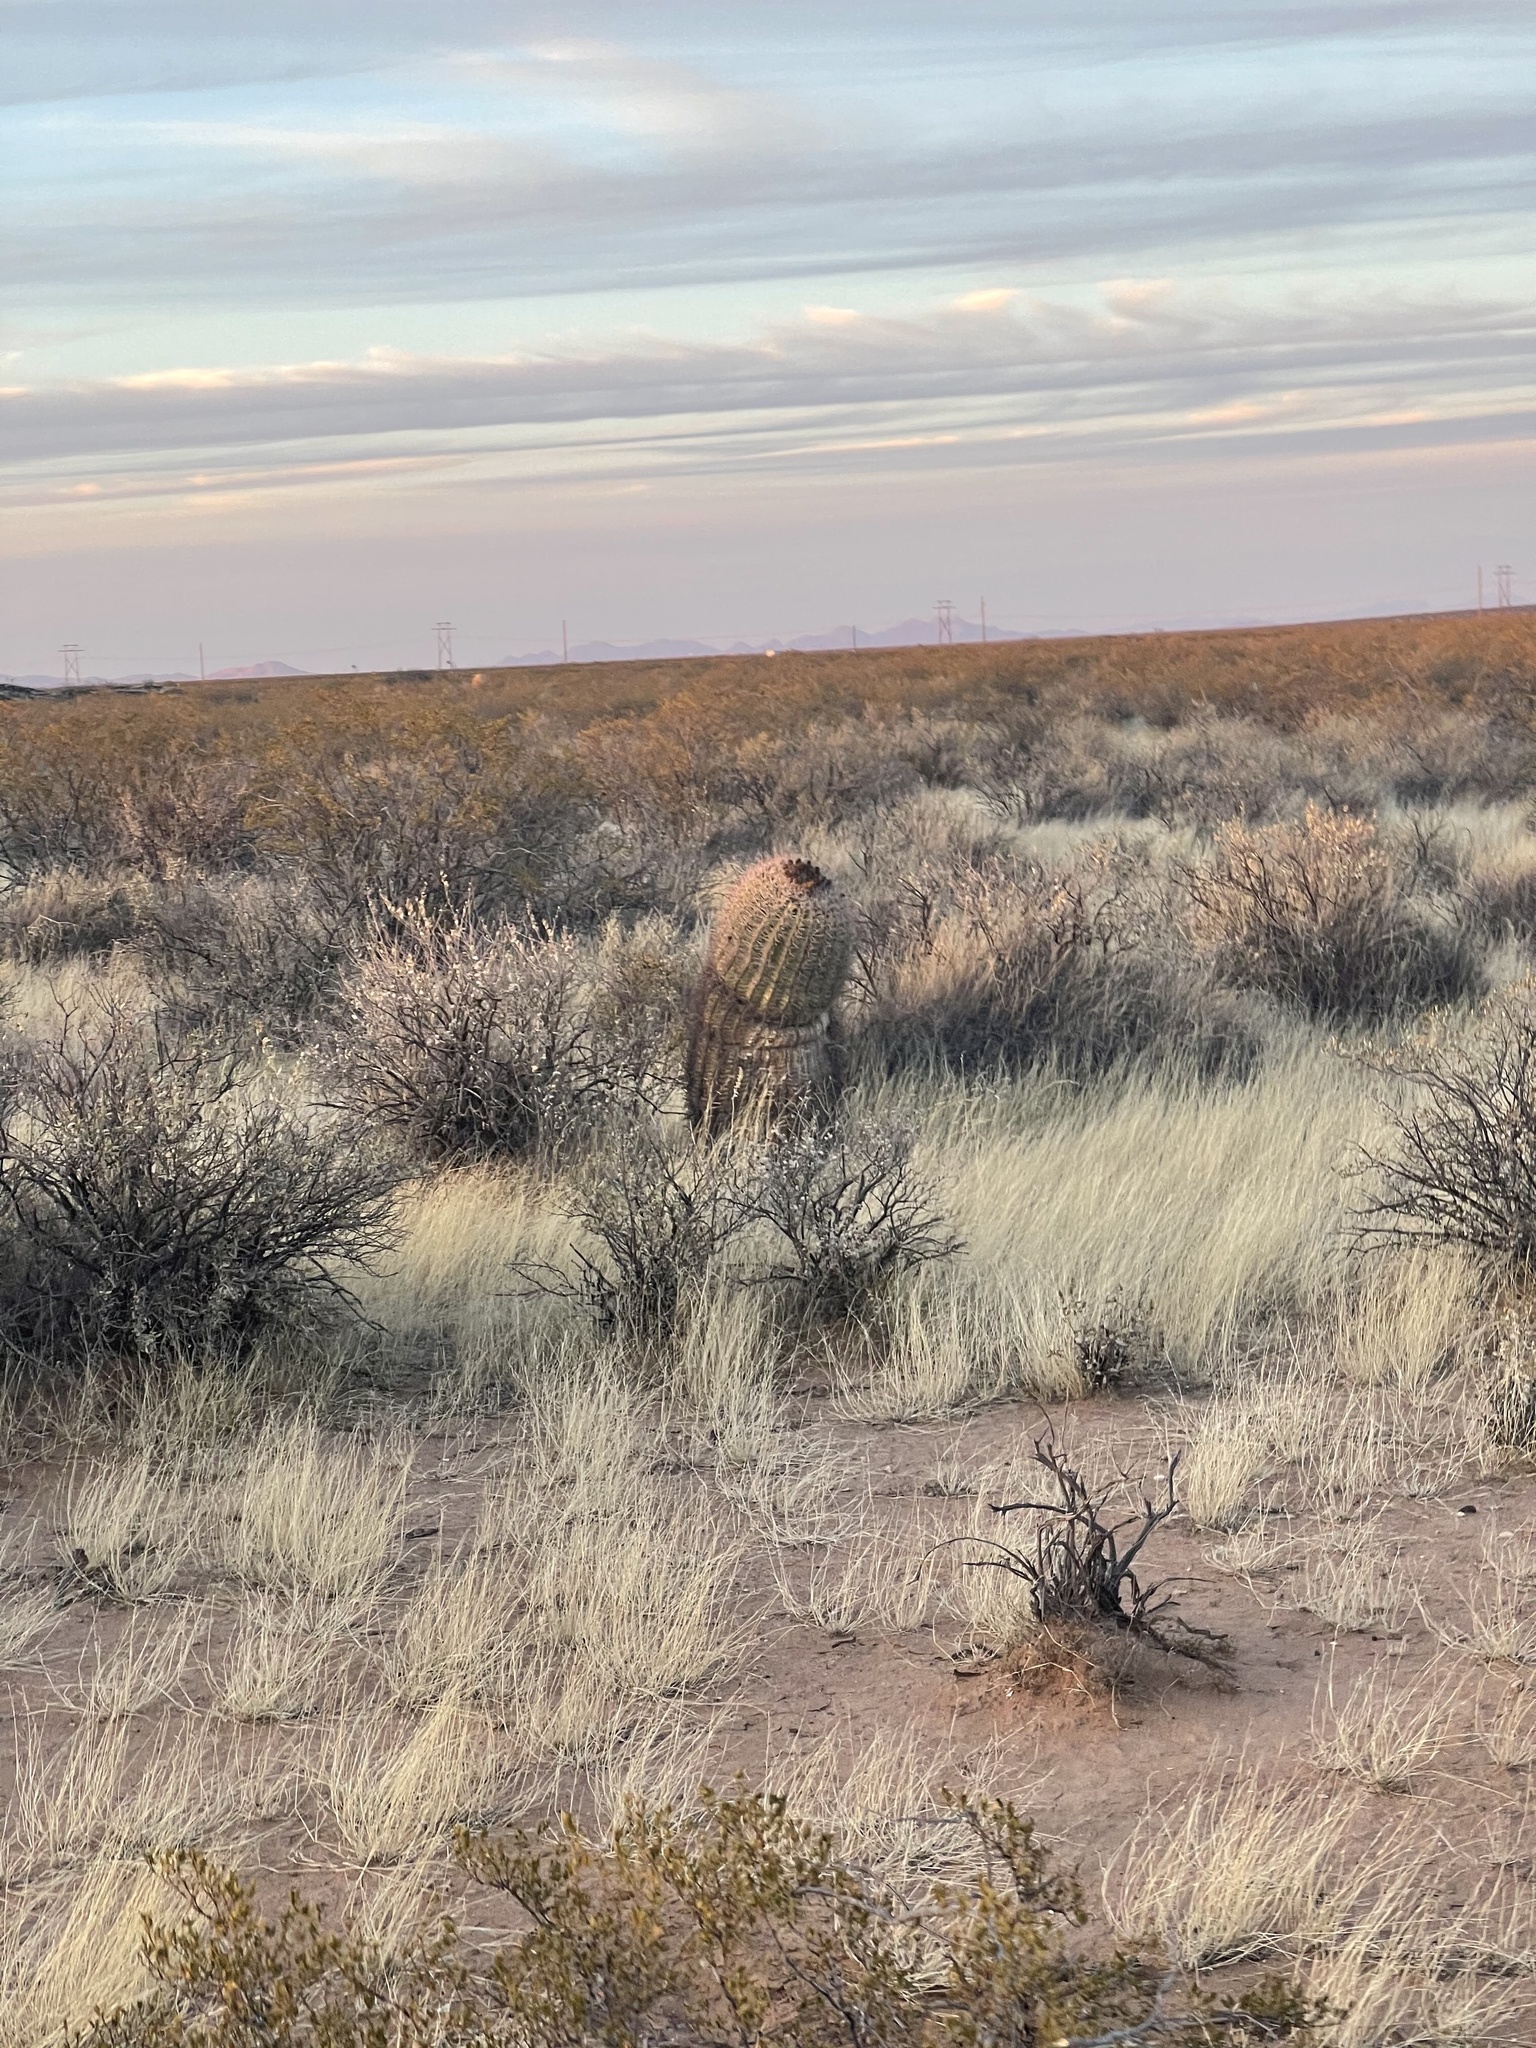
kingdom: Plantae
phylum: Tracheophyta
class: Magnoliopsida
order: Caryophyllales
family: Cactaceae
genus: Ferocactus
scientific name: Ferocactus wislizeni
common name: Candy barrel cactus
